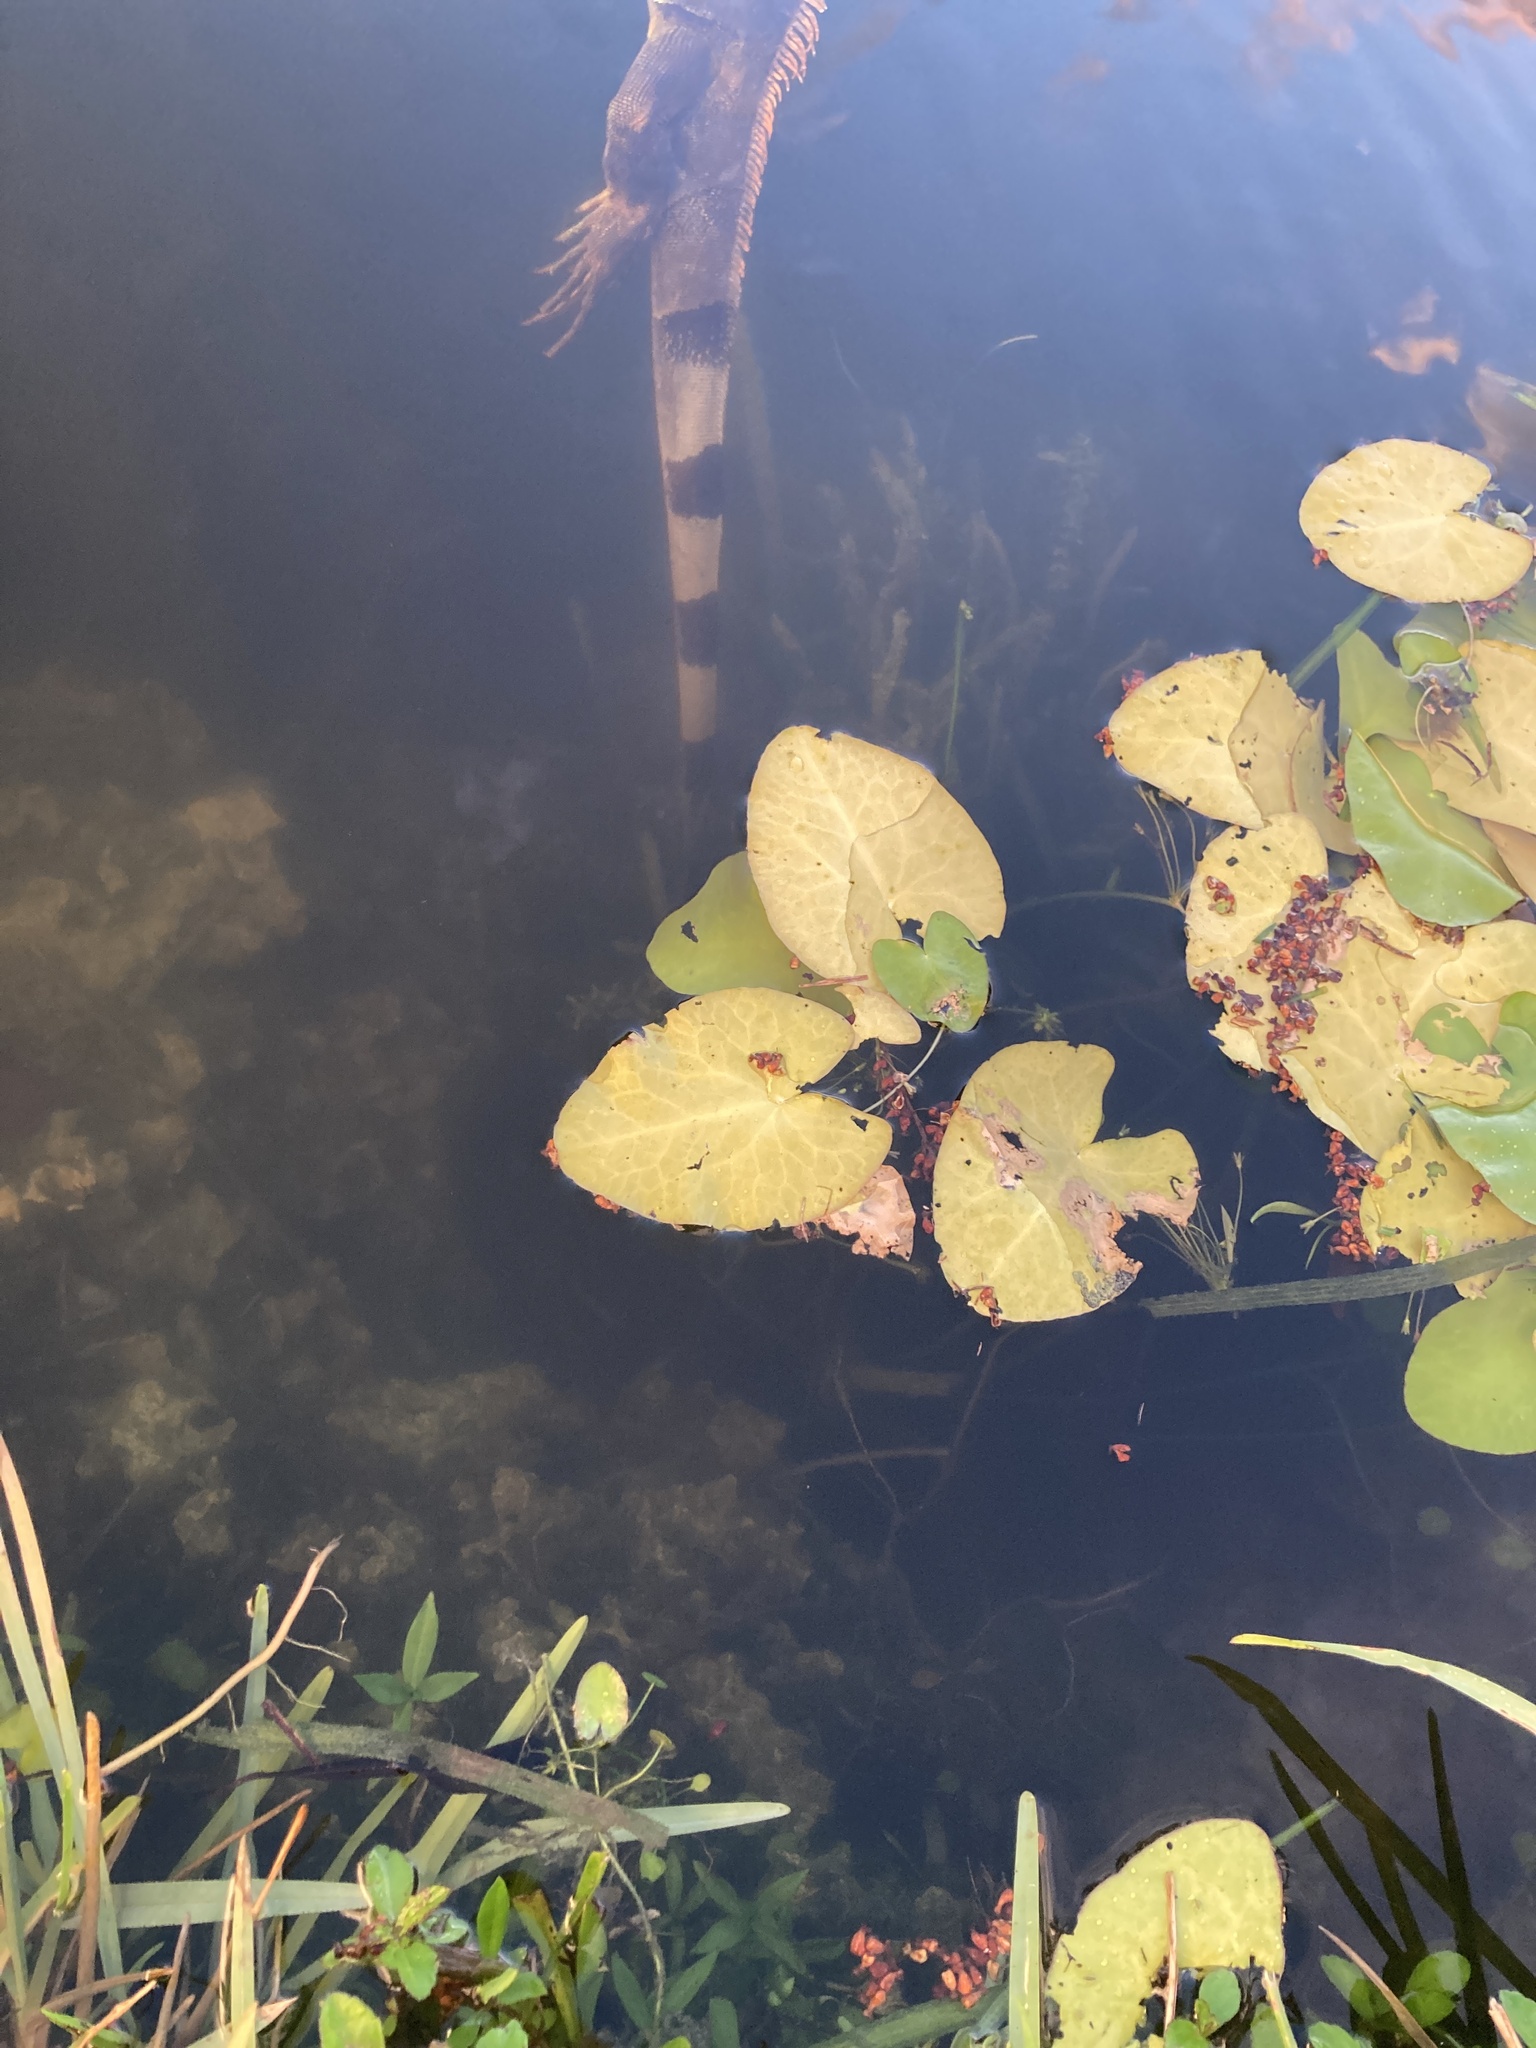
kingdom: Animalia
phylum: Chordata
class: Squamata
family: Iguanidae
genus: Iguana
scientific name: Iguana iguana
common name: Green iguana
